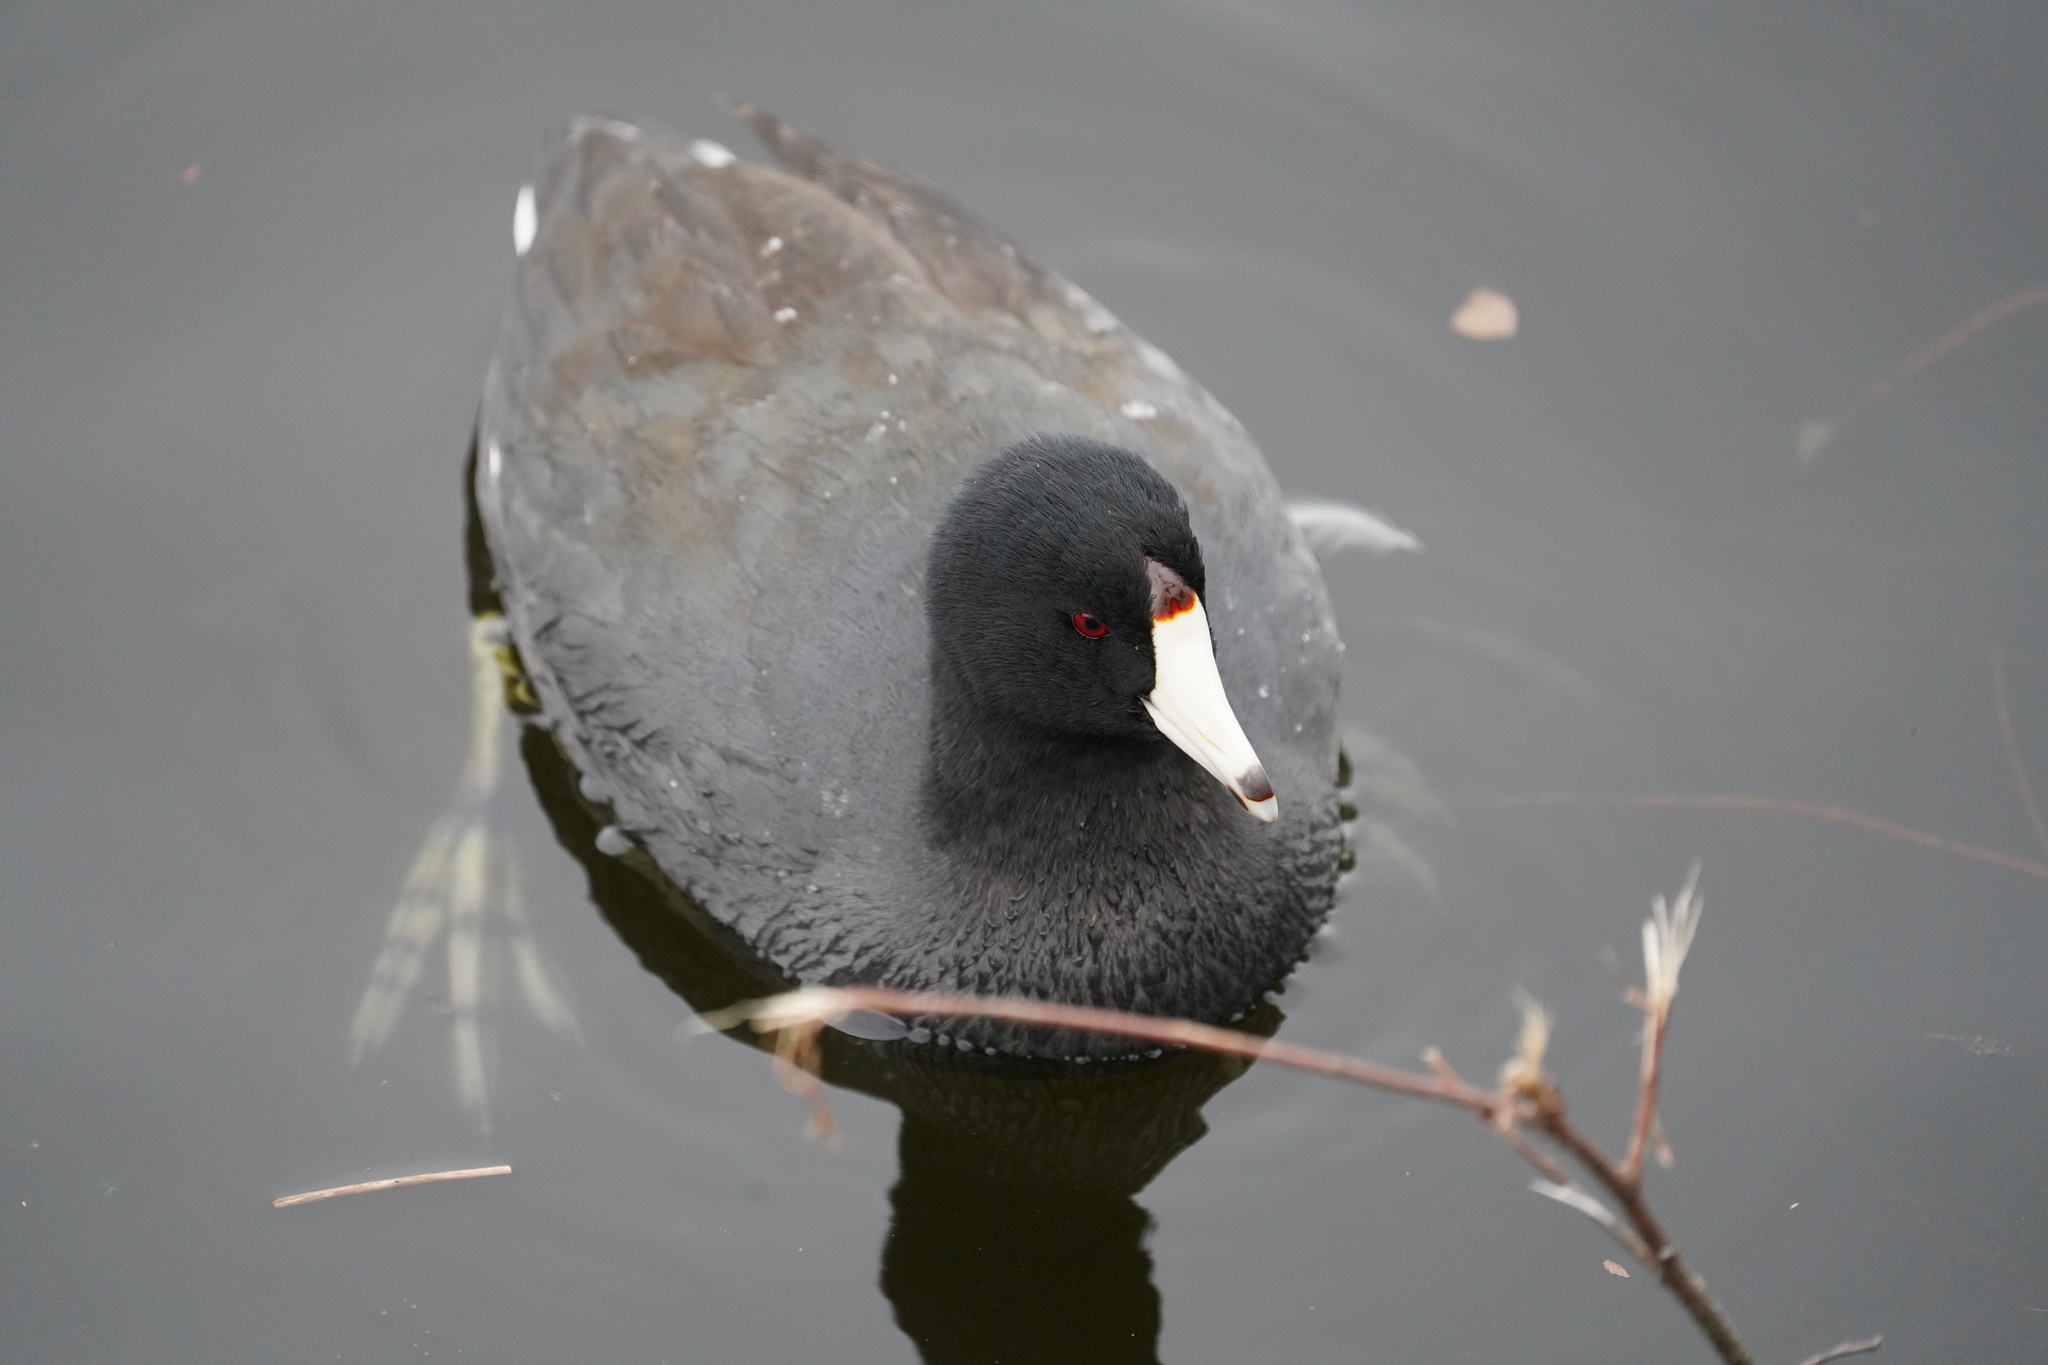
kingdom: Animalia
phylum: Chordata
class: Aves
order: Gruiformes
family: Rallidae
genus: Fulica
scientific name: Fulica americana
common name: American coot
